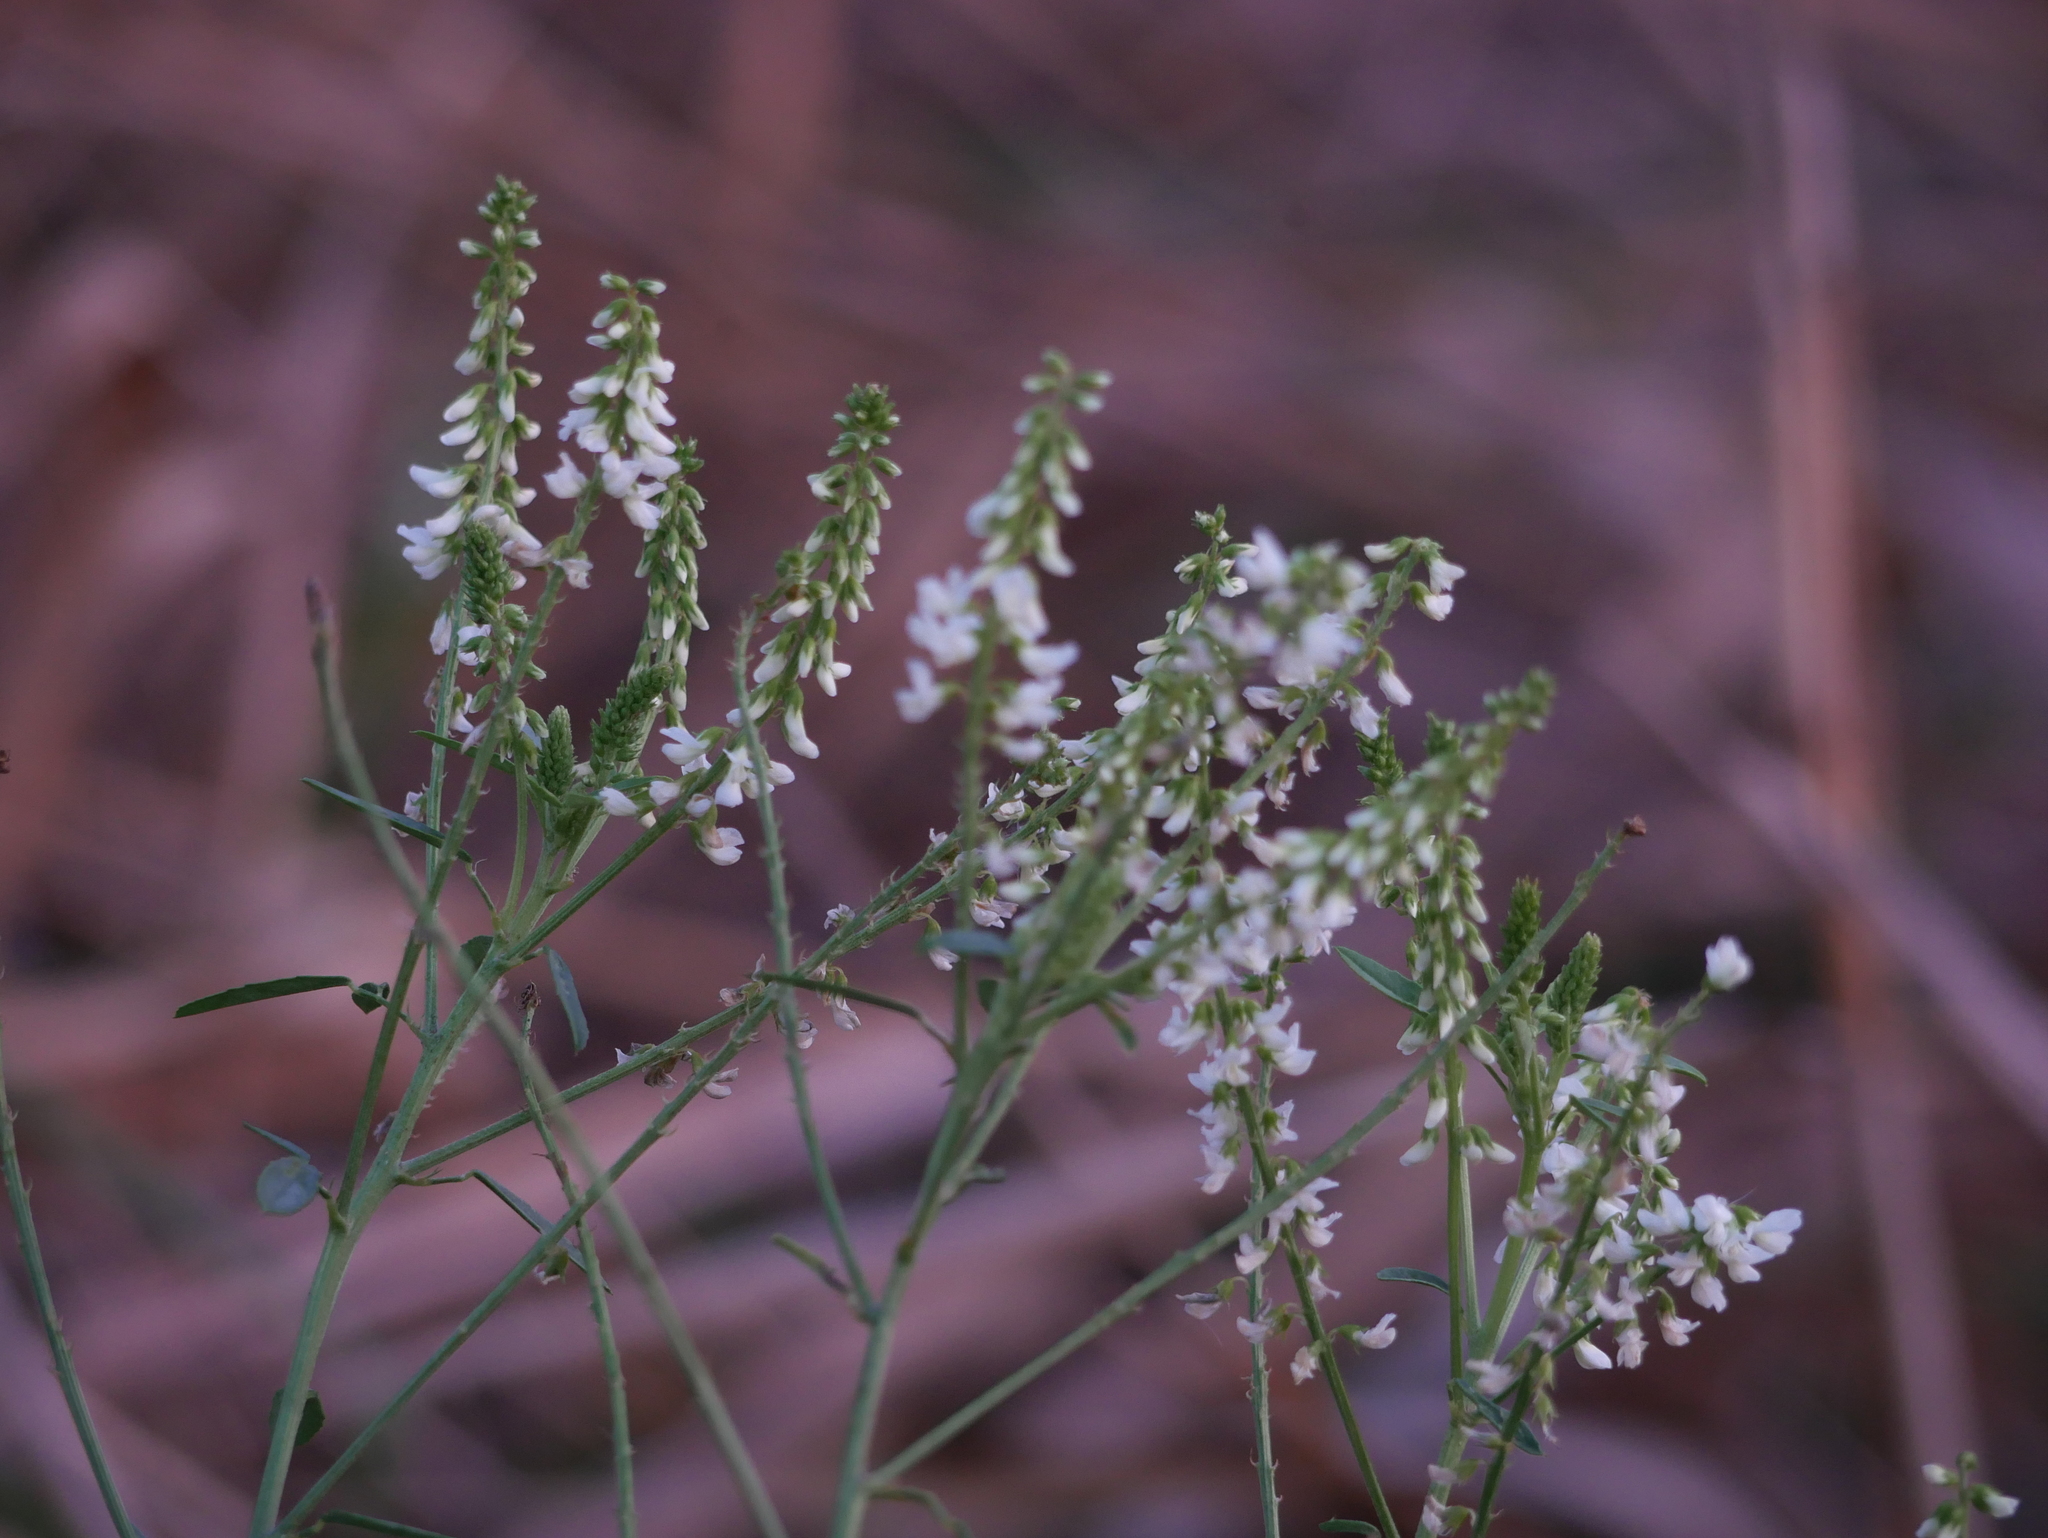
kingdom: Plantae
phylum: Tracheophyta
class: Magnoliopsida
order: Fabales
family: Fabaceae
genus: Melilotus
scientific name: Melilotus albus
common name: White melilot
